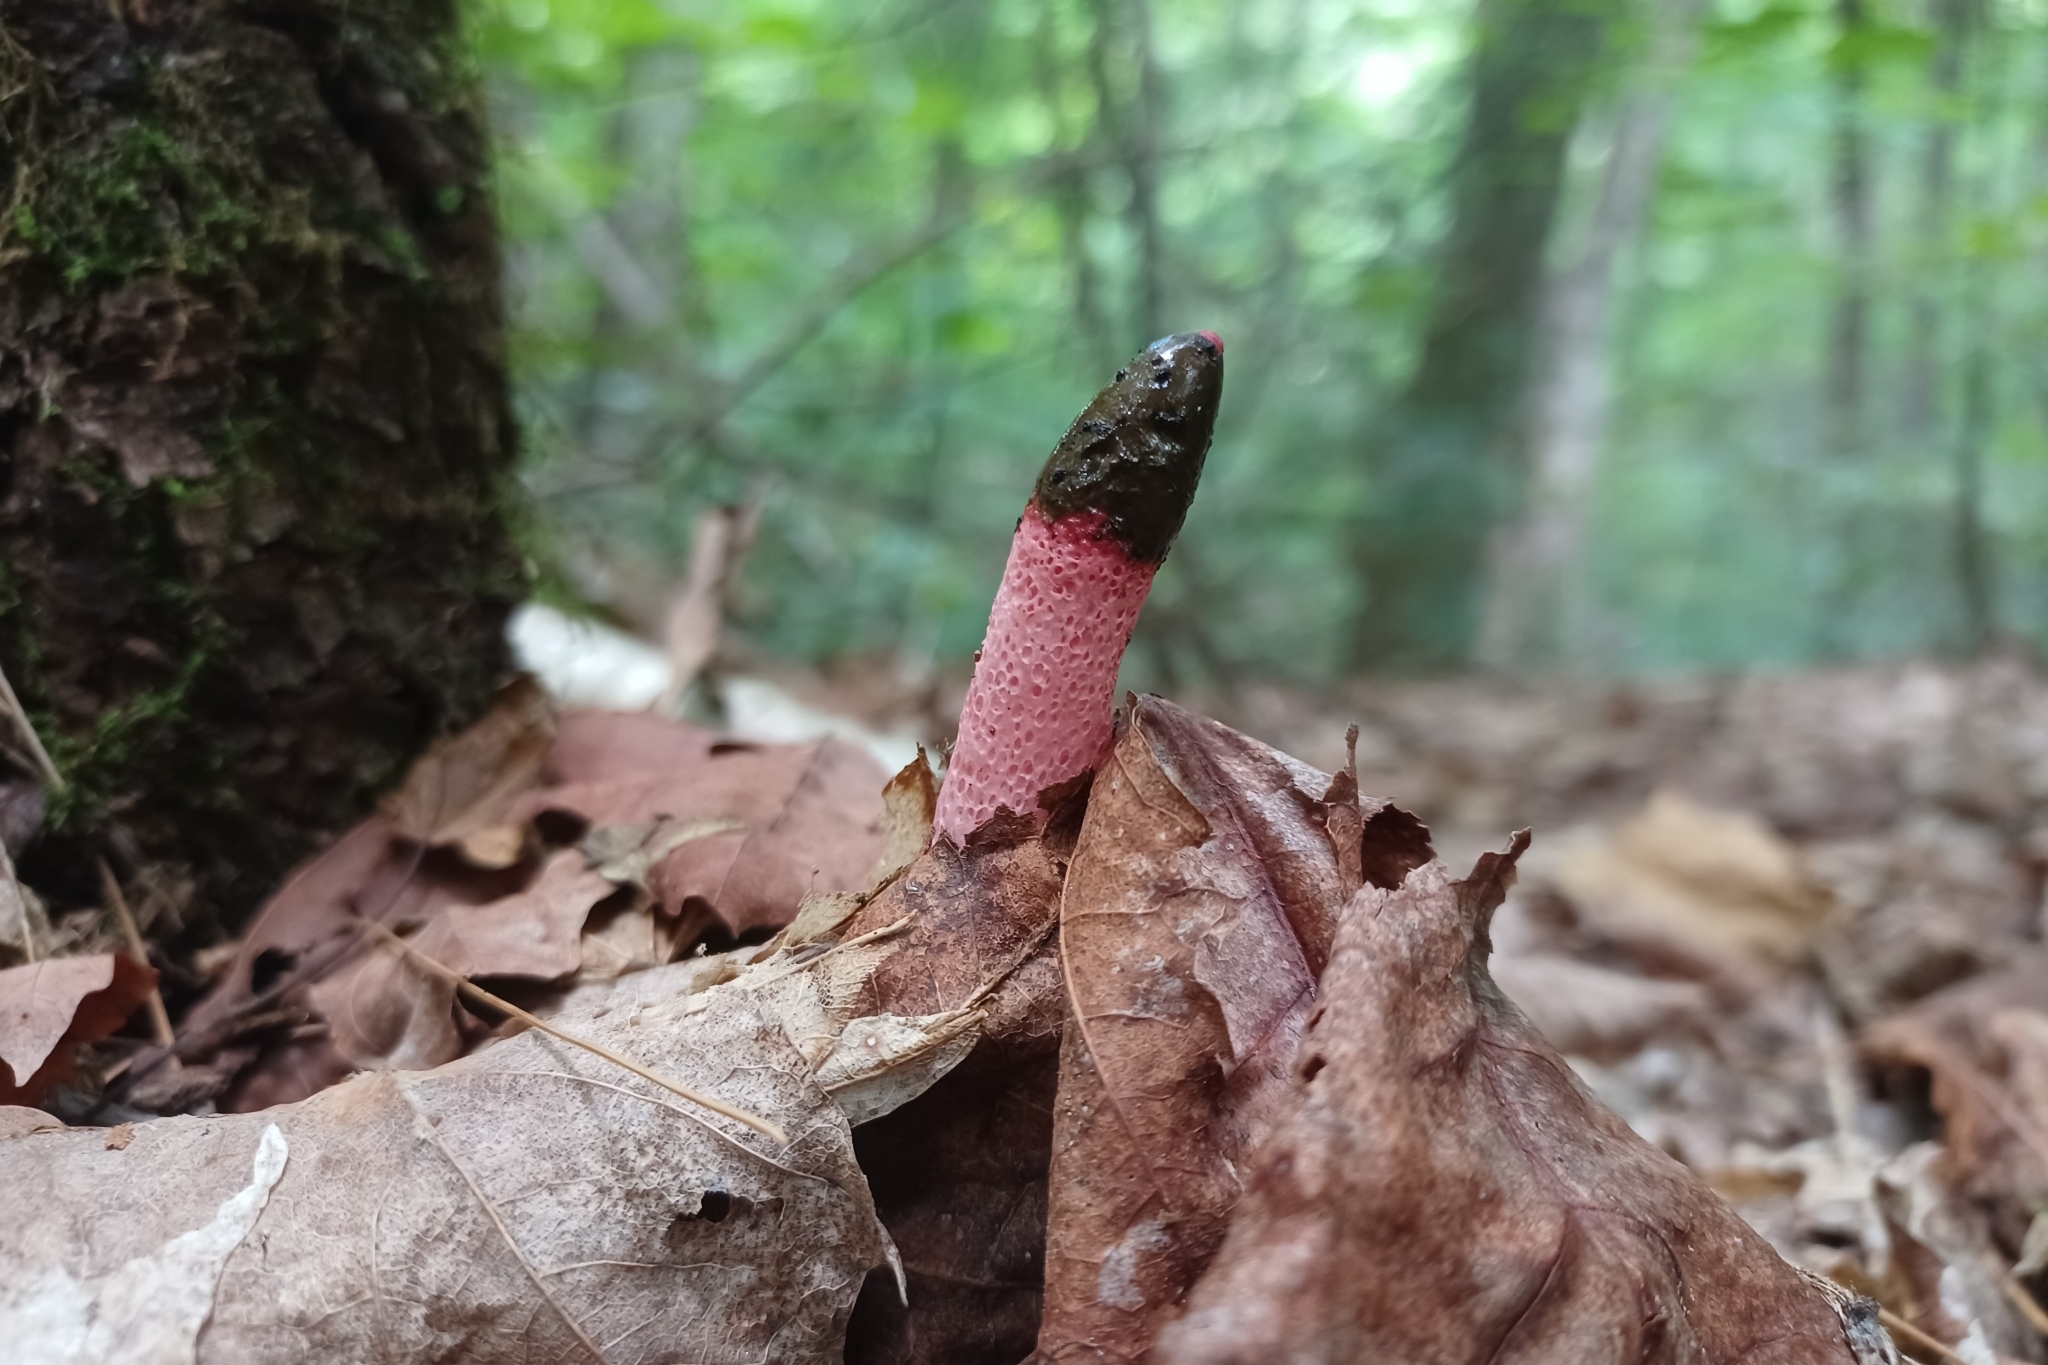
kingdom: Fungi
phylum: Basidiomycota
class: Agaricomycetes
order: Phallales
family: Phallaceae
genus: Mutinus
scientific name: Mutinus ravenelii
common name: Red stinkhorn
